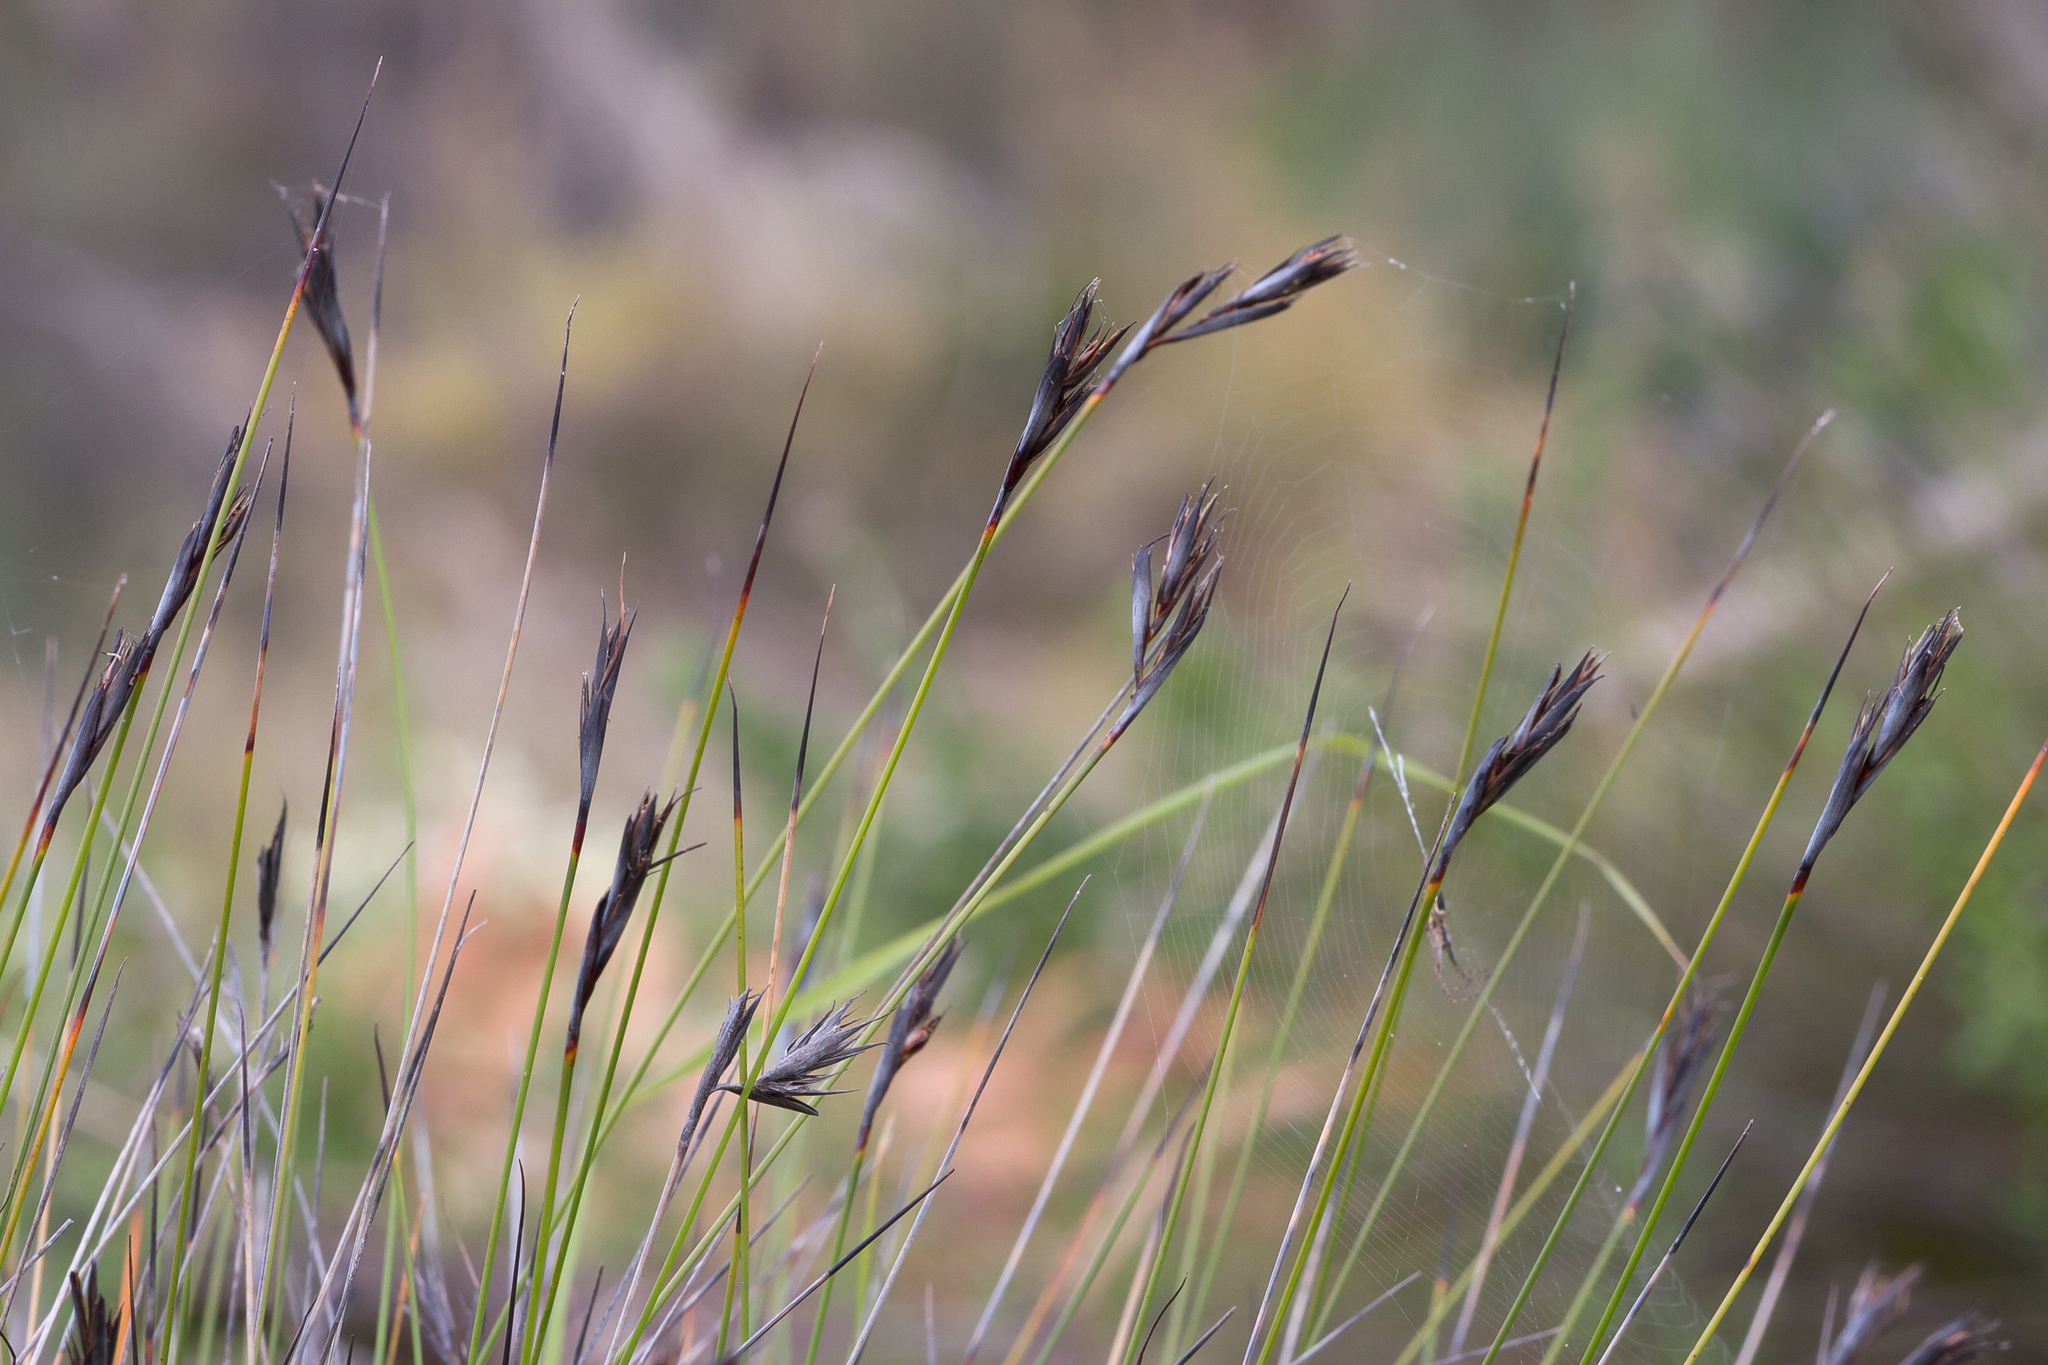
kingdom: Plantae
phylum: Tracheophyta
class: Liliopsida
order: Poales
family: Cyperaceae
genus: Lepidosperma
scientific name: Lepidosperma carphoides
